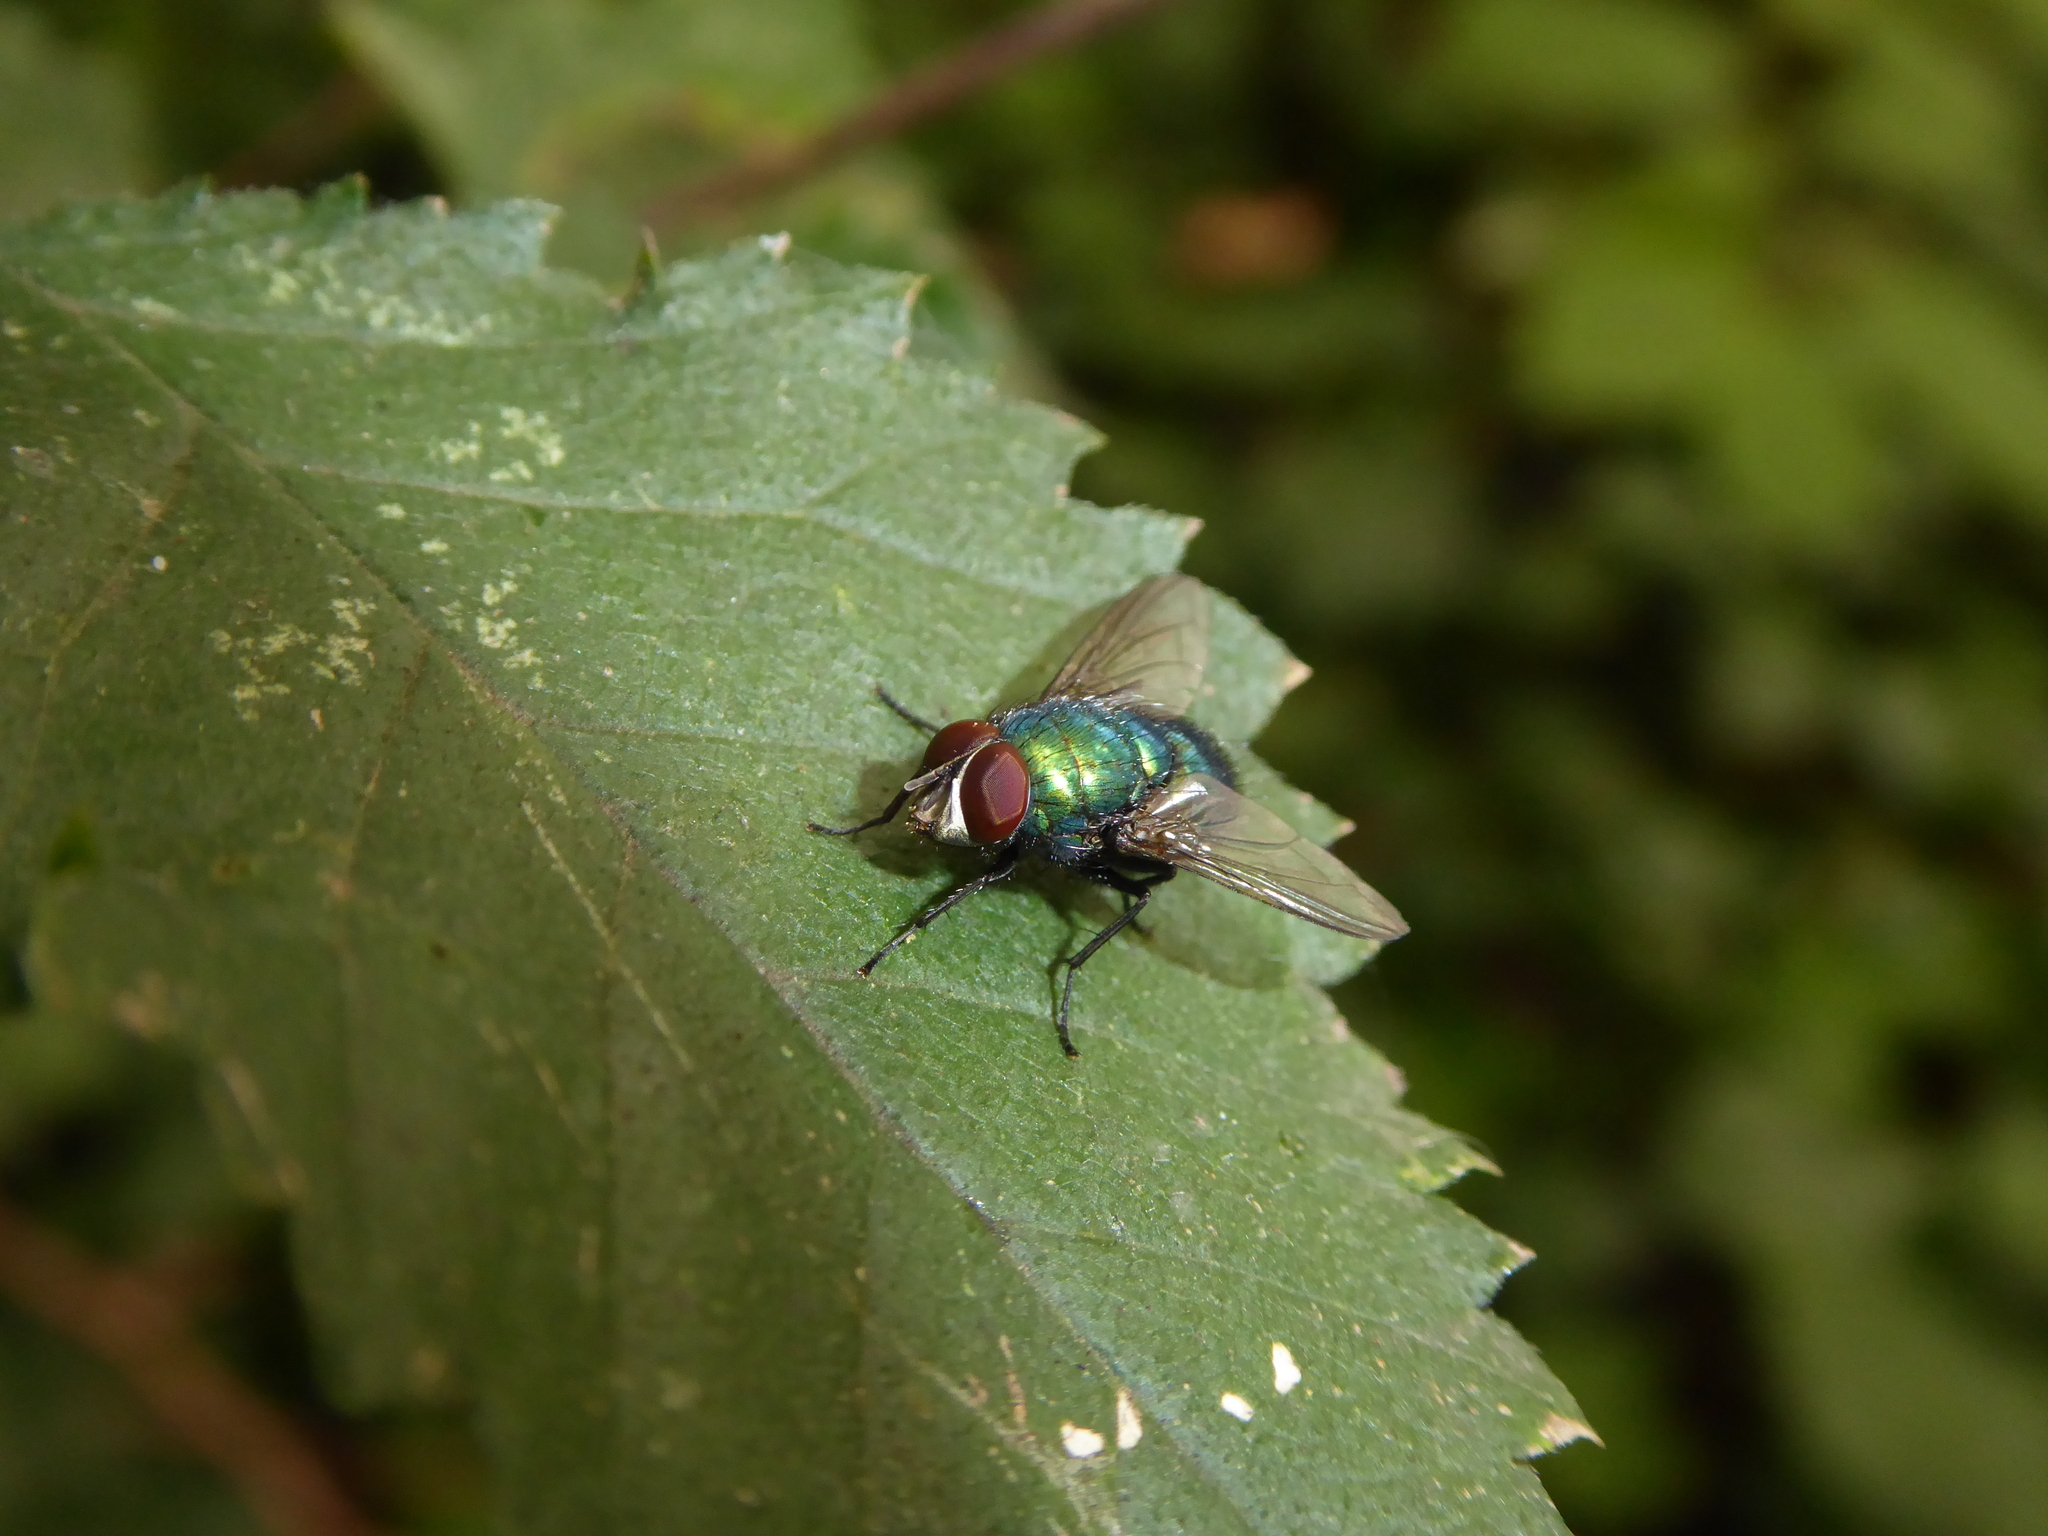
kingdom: Animalia
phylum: Arthropoda
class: Insecta
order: Diptera
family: Calliphoridae
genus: Lucilia
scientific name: Lucilia
